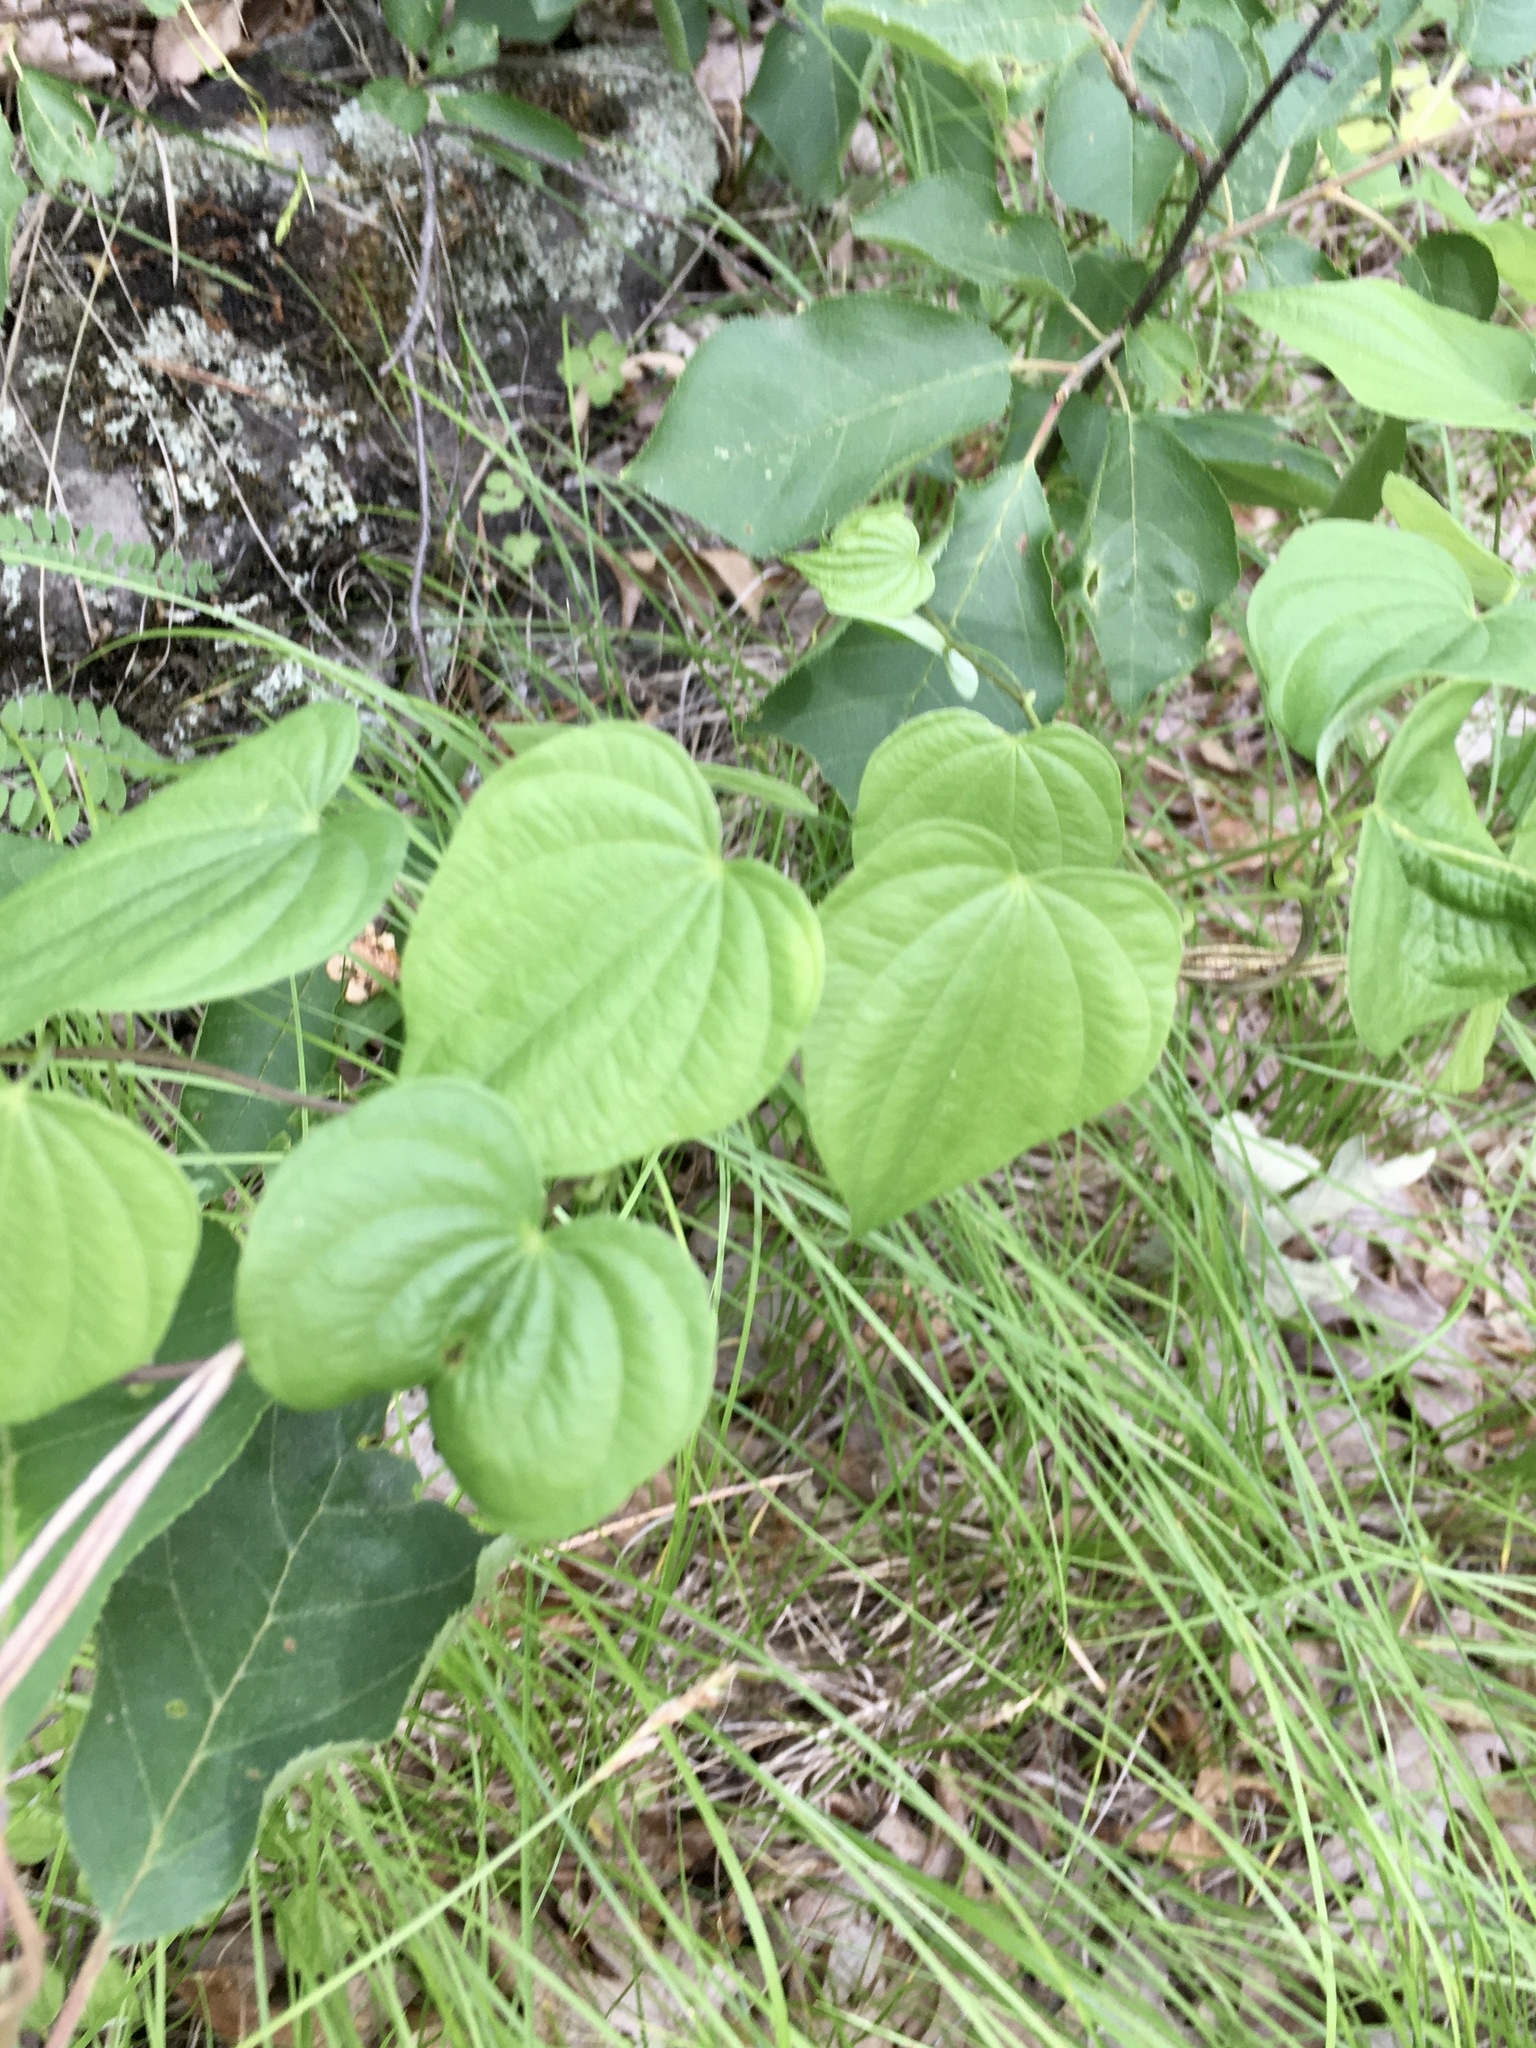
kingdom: Plantae
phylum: Tracheophyta
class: Liliopsida
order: Dioscoreales
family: Dioscoreaceae
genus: Dioscorea
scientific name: Dioscorea villosa
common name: Wild yam
